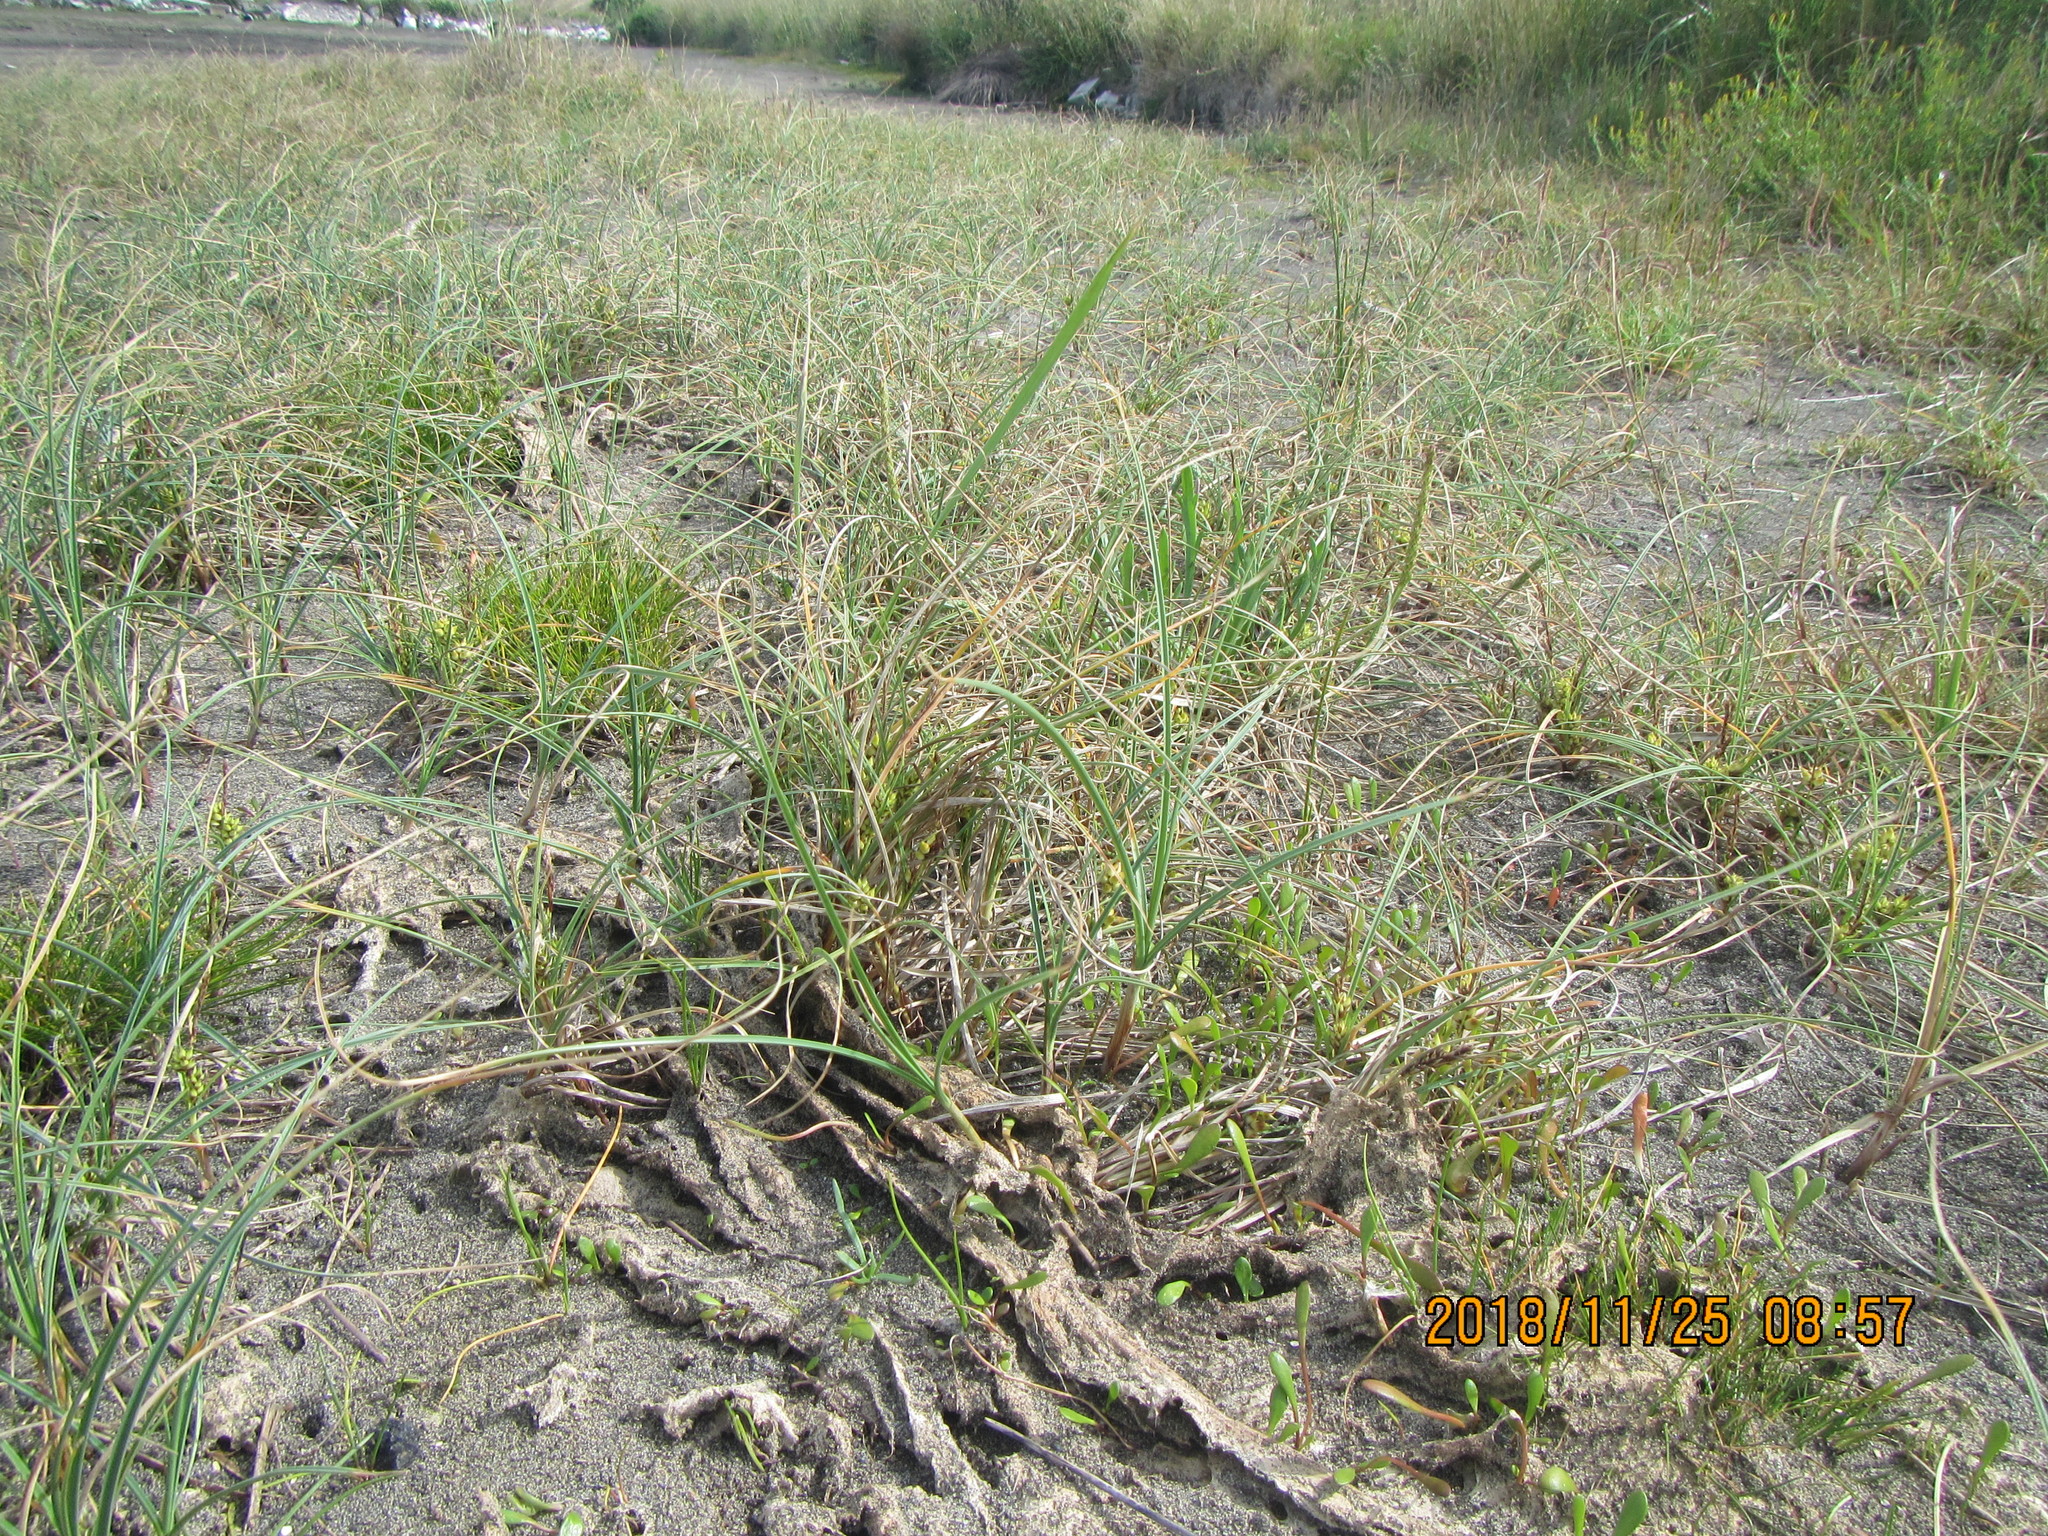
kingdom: Plantae
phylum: Tracheophyta
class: Liliopsida
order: Poales
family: Cyperaceae
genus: Carex
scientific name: Carex pumila
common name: Dwarf sedge
